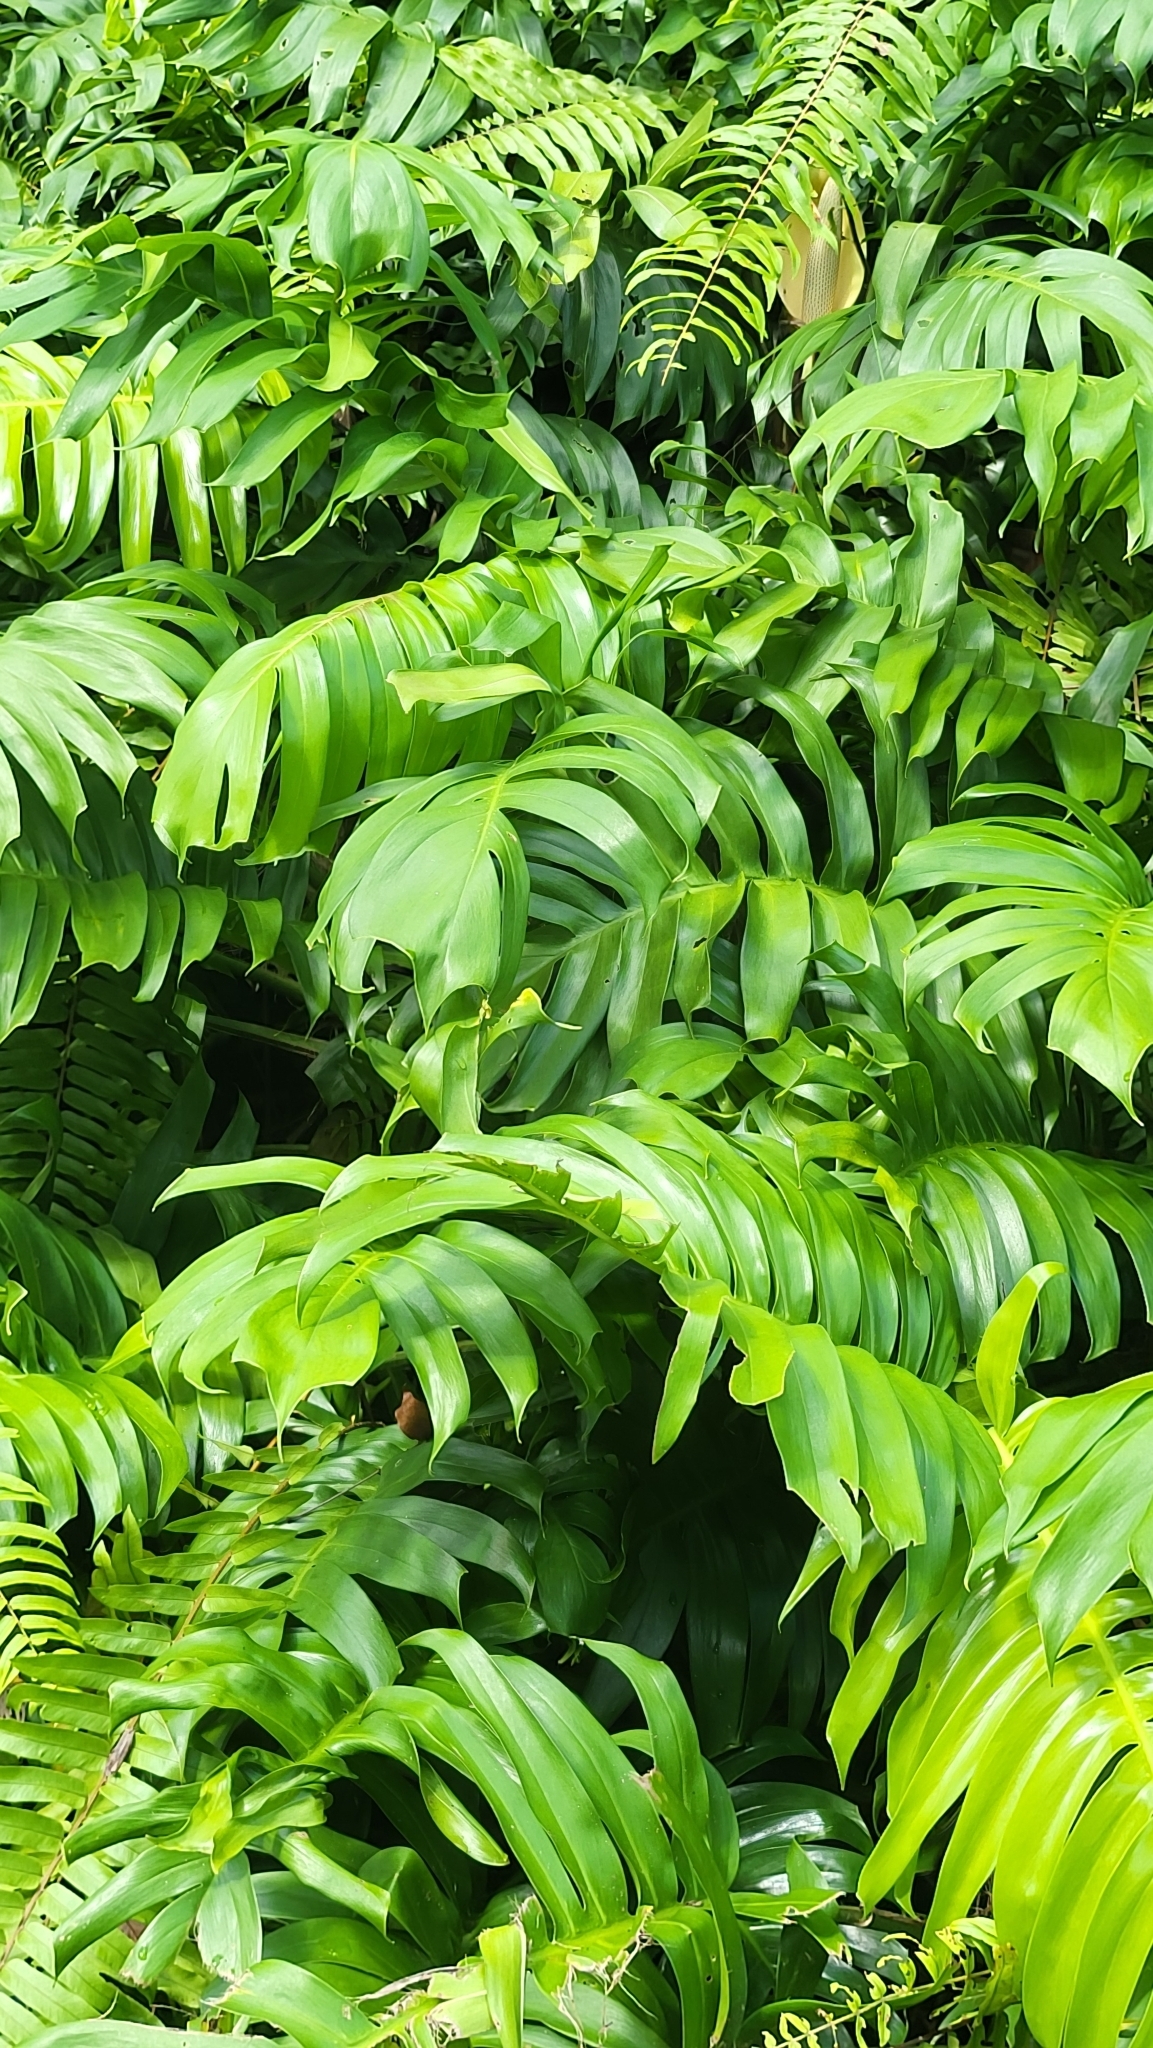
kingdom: Plantae
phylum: Tracheophyta
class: Liliopsida
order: Alismatales
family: Araceae
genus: Epipremnum
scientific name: Epipremnum pinnatum
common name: Centipede tongavine
